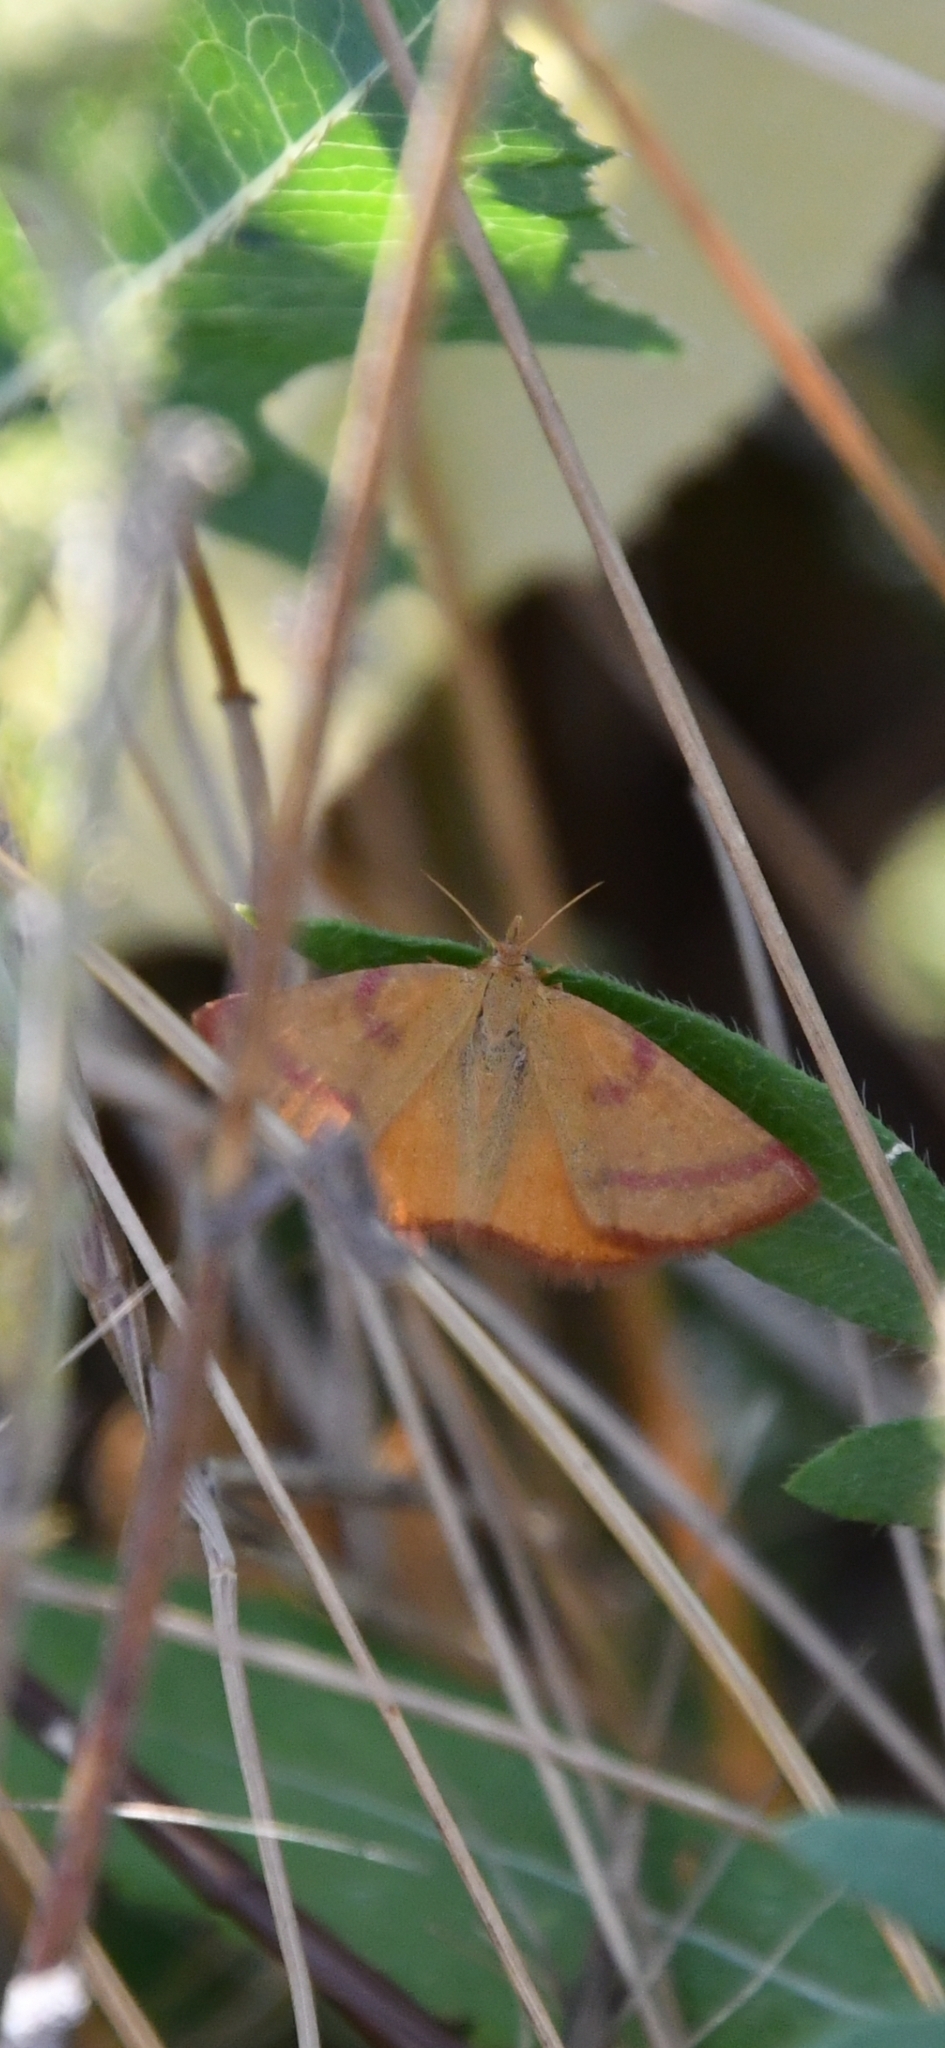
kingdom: Animalia
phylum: Arthropoda
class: Insecta
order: Lepidoptera
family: Geometridae
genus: Lythria
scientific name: Lythria purpuraria
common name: Purple-barred yellow
